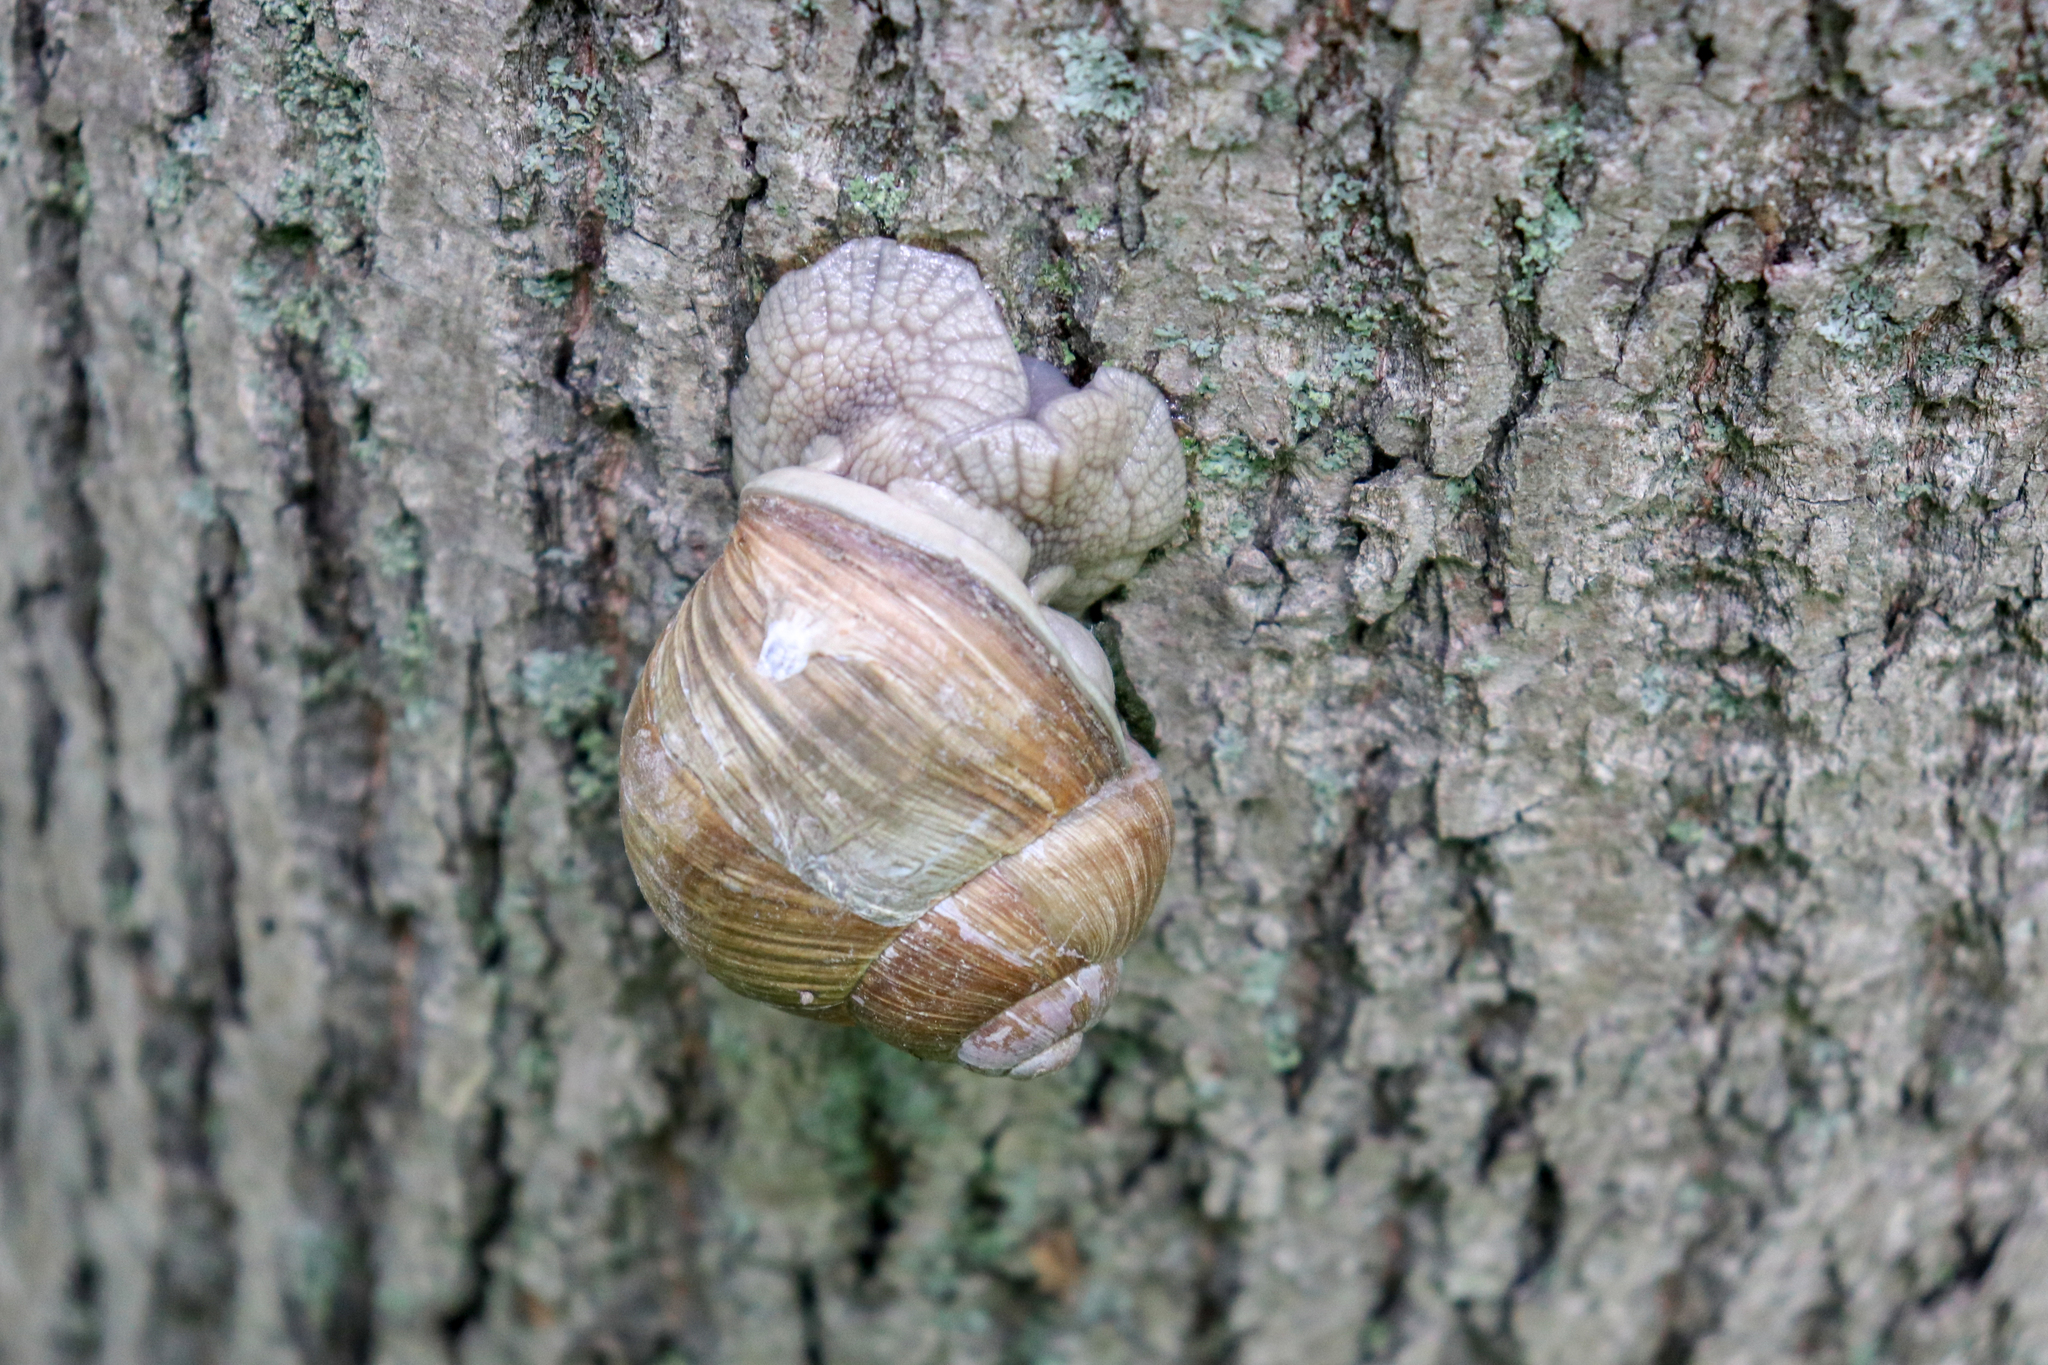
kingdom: Animalia
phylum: Mollusca
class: Gastropoda
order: Stylommatophora
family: Helicidae
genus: Helix
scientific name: Helix pomatia
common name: Roman snail
